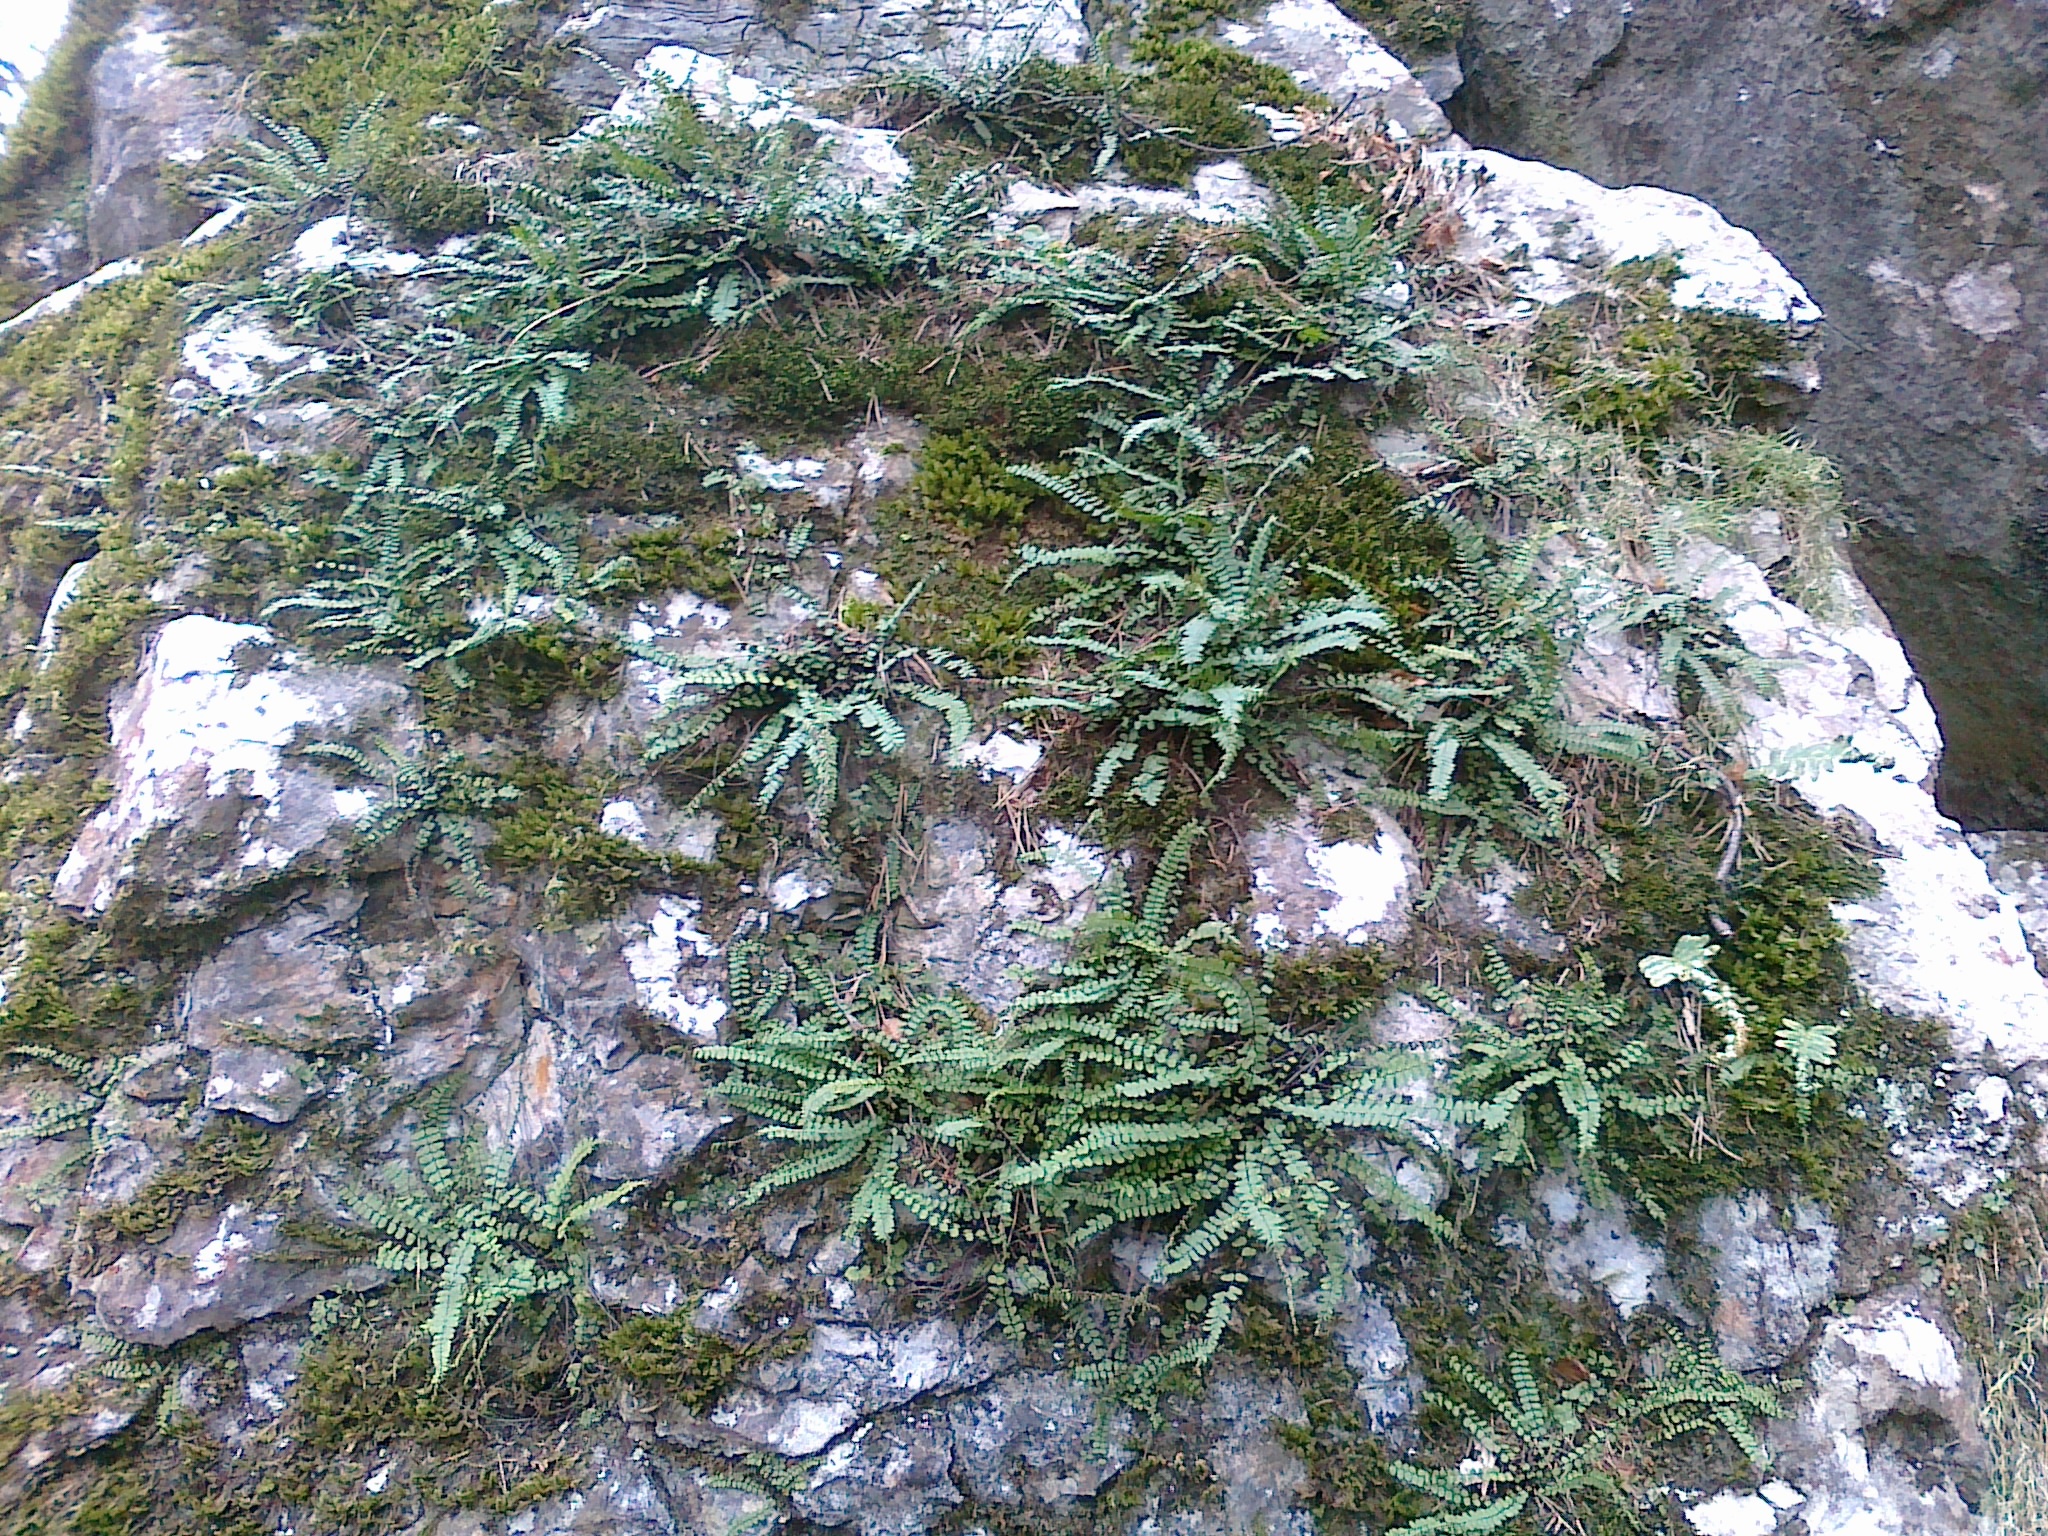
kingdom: Plantae
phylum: Tracheophyta
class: Polypodiopsida
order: Polypodiales
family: Aspleniaceae
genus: Asplenium
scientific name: Asplenium quadrivalens
